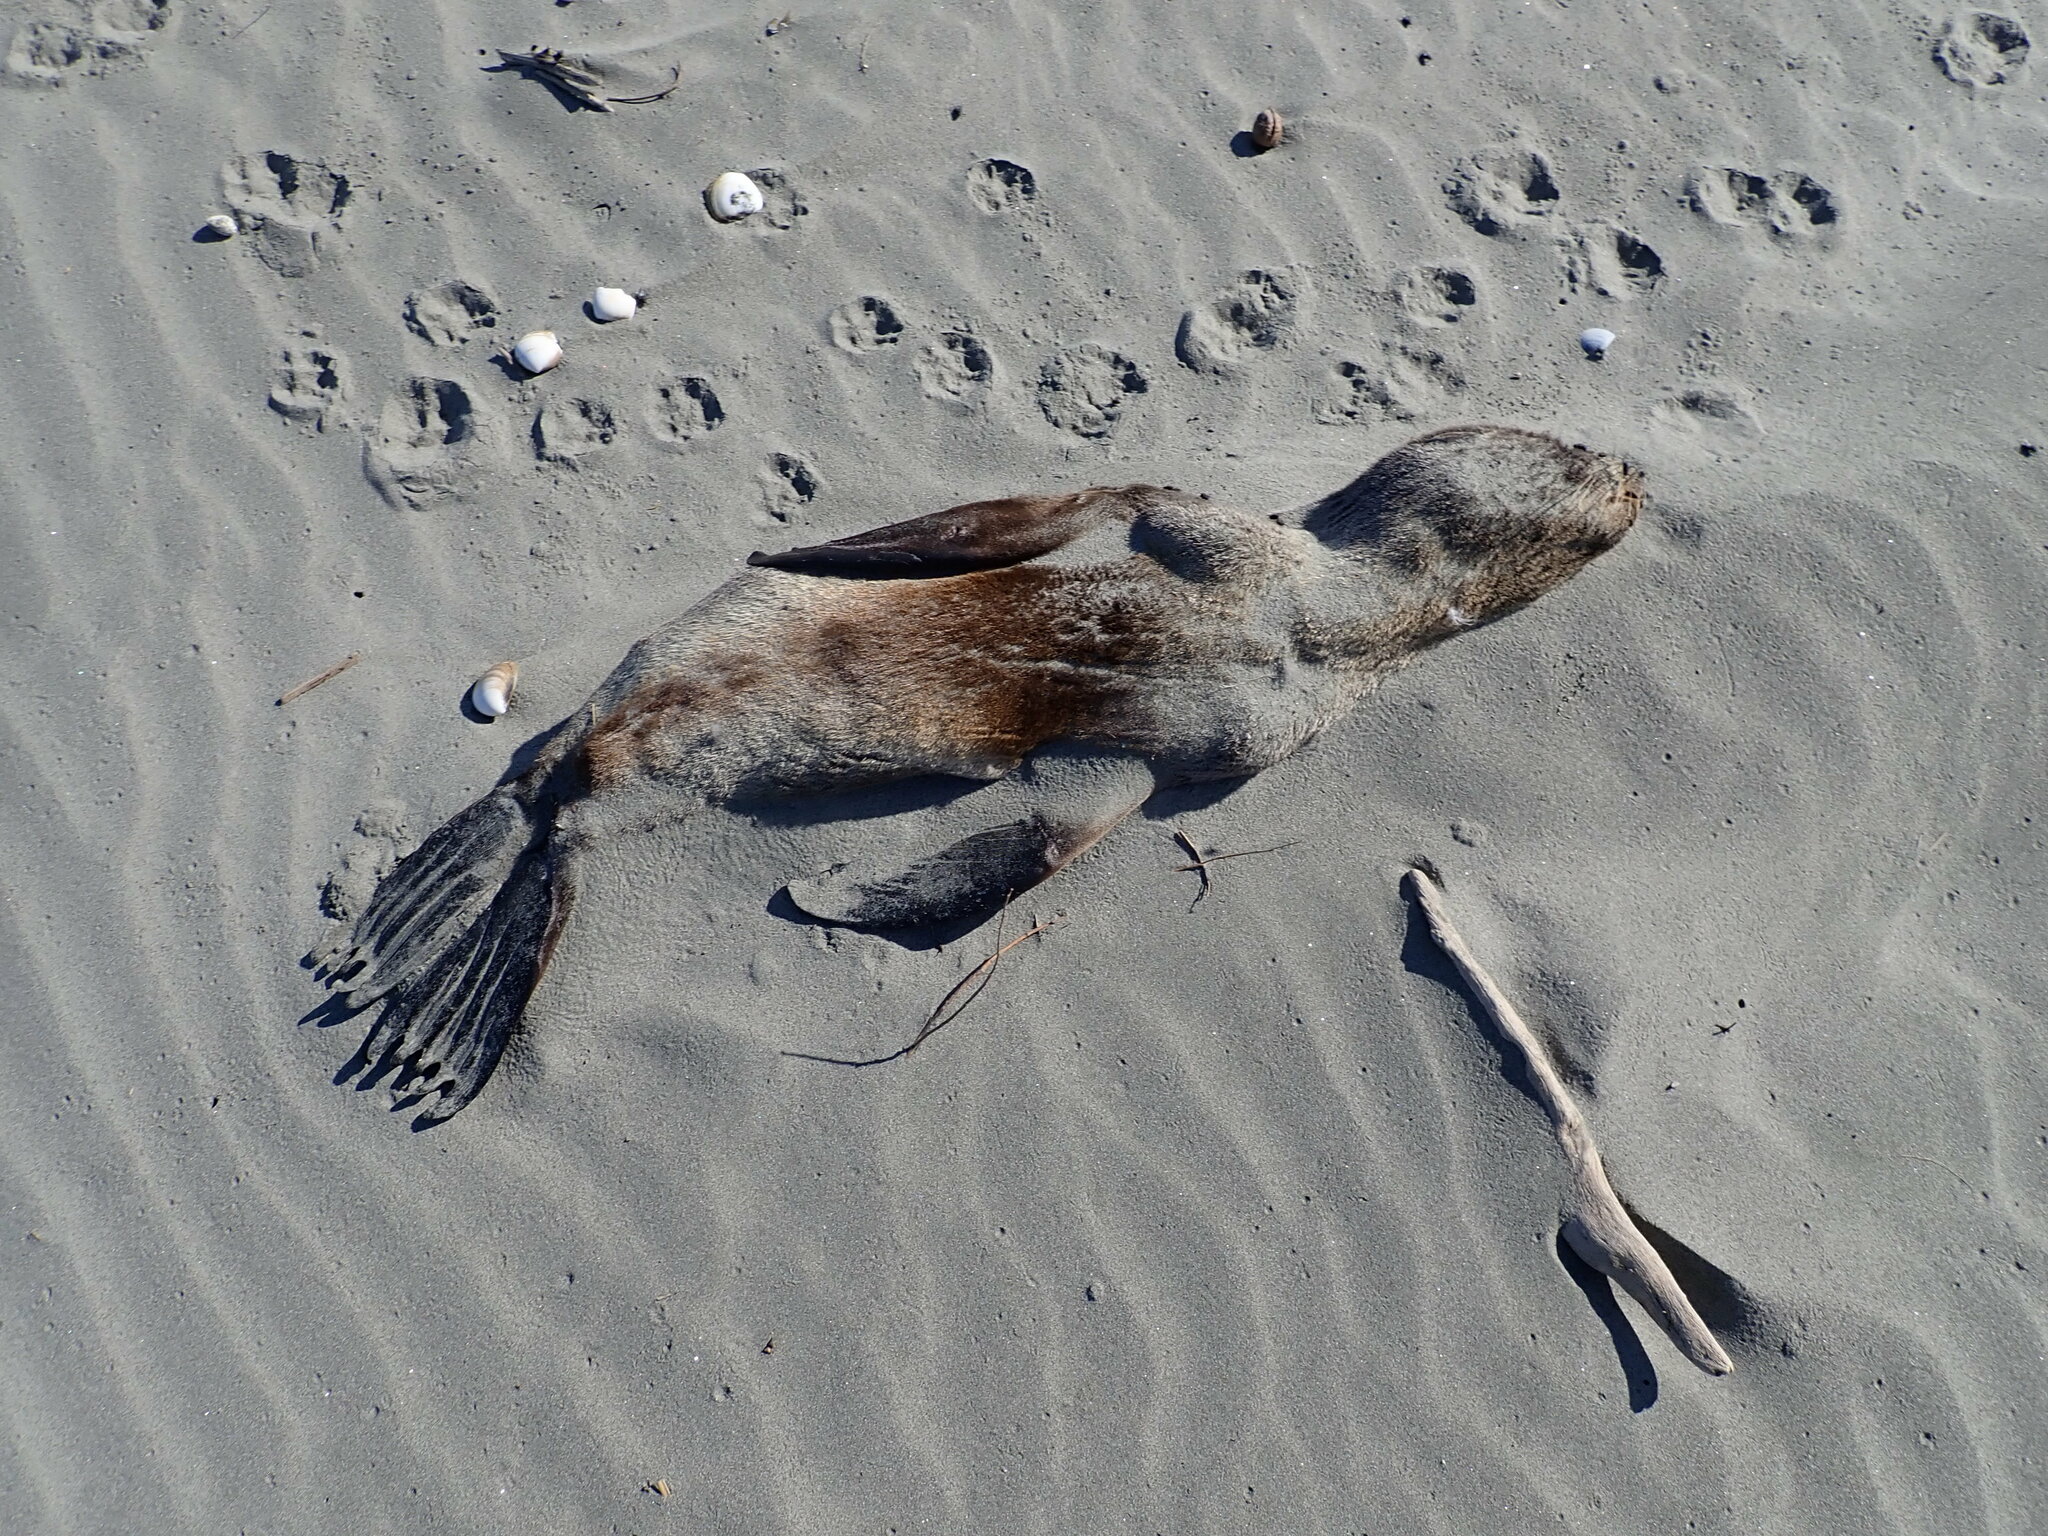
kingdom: Animalia
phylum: Chordata
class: Mammalia
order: Carnivora
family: Otariidae
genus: Arctocephalus
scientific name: Arctocephalus forsteri
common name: New zealand fur seal
